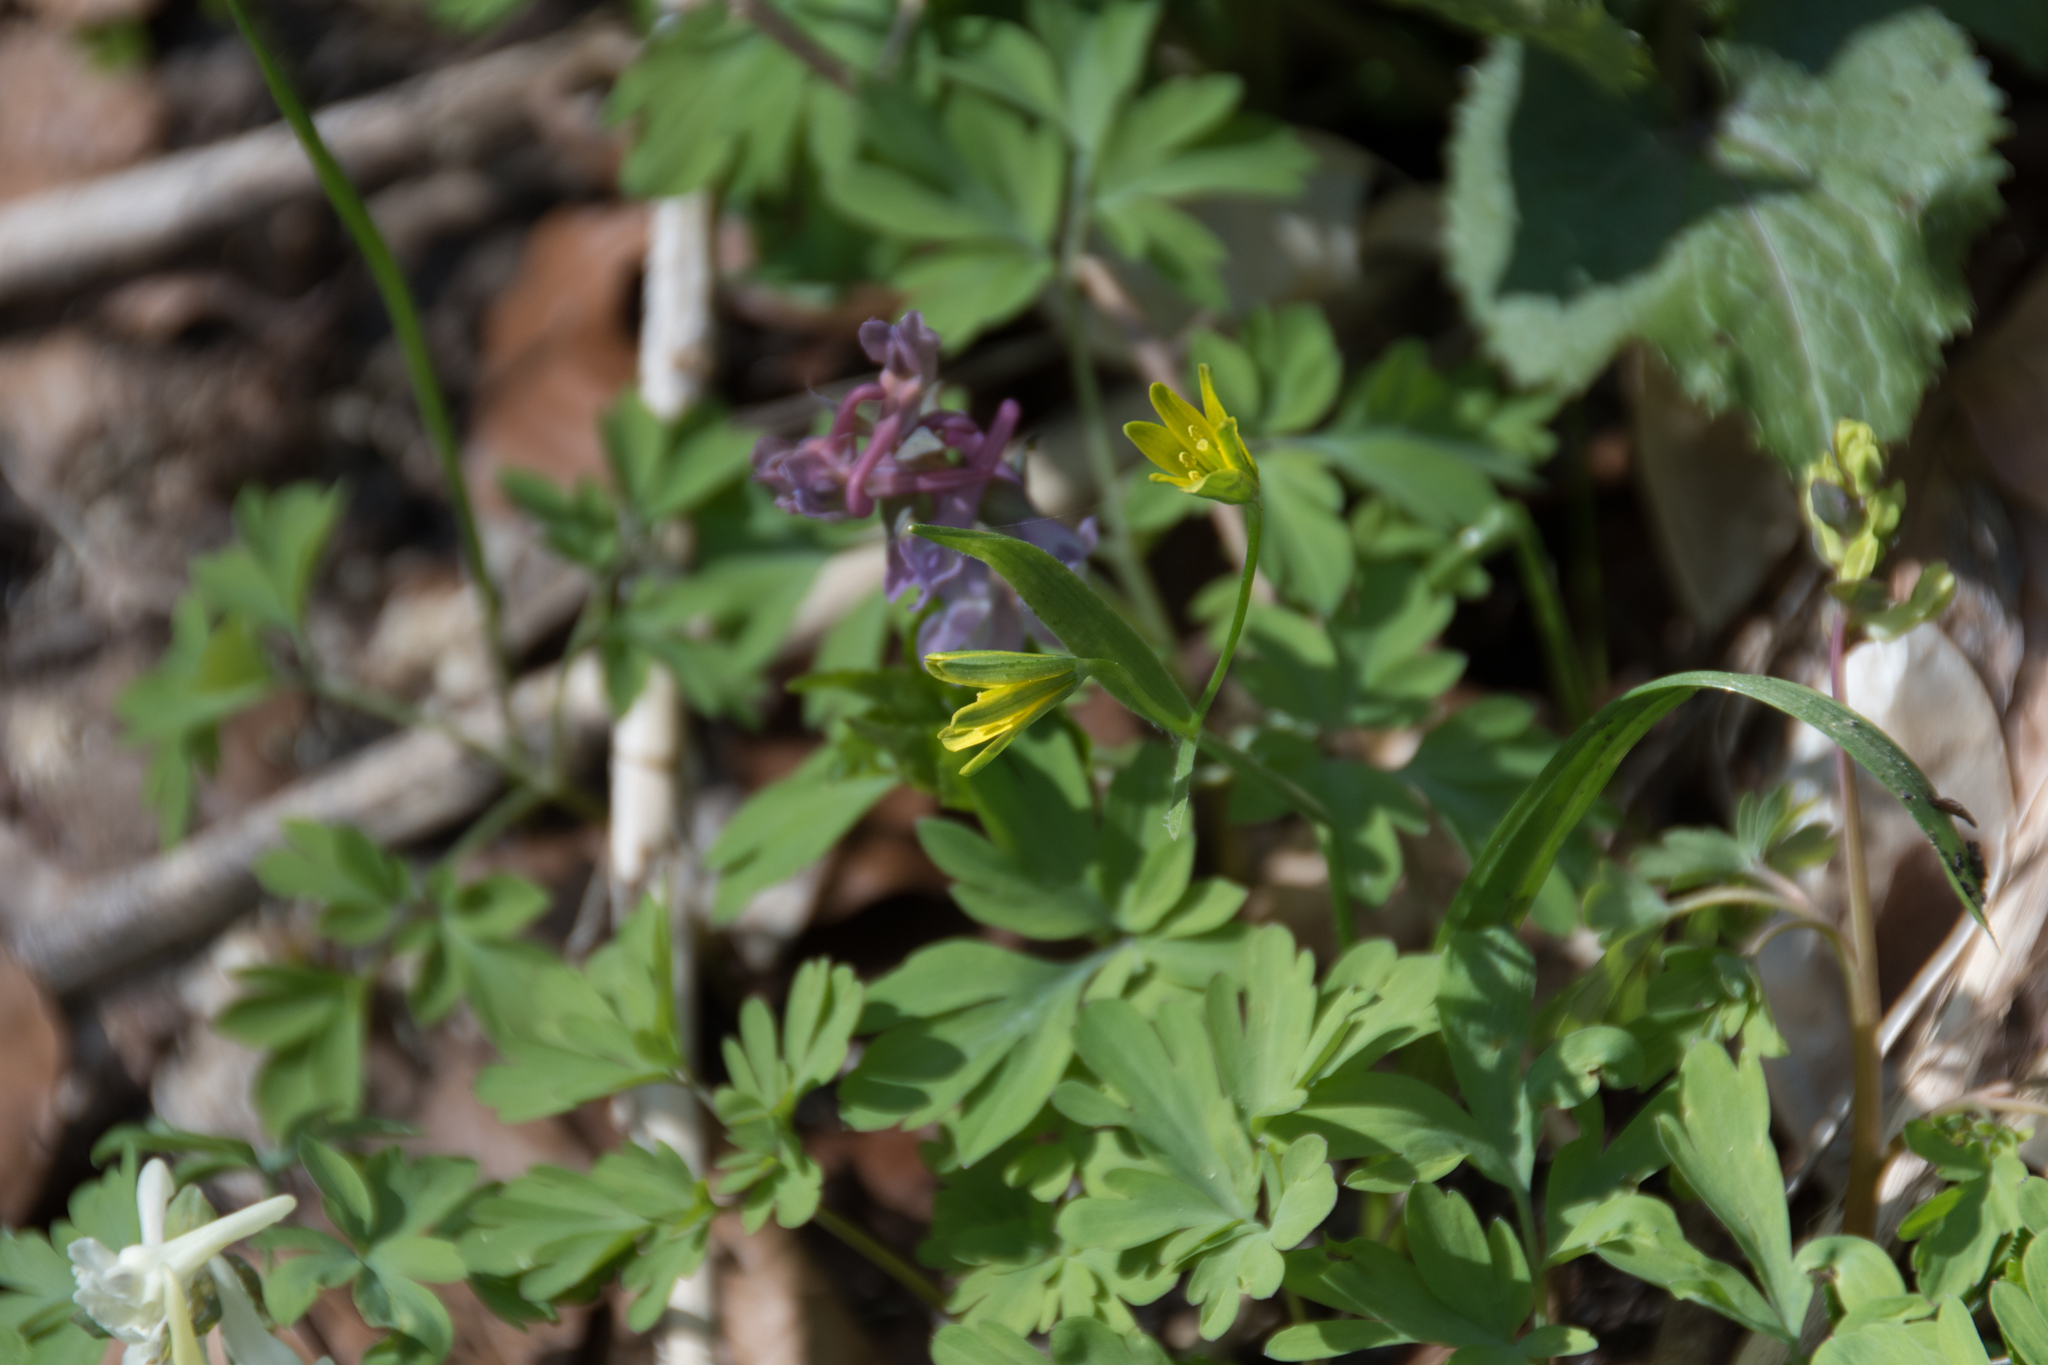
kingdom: Plantae
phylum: Tracheophyta
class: Liliopsida
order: Liliales
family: Liliaceae
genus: Gagea
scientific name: Gagea lutea
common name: Yellow star-of-bethlehem
